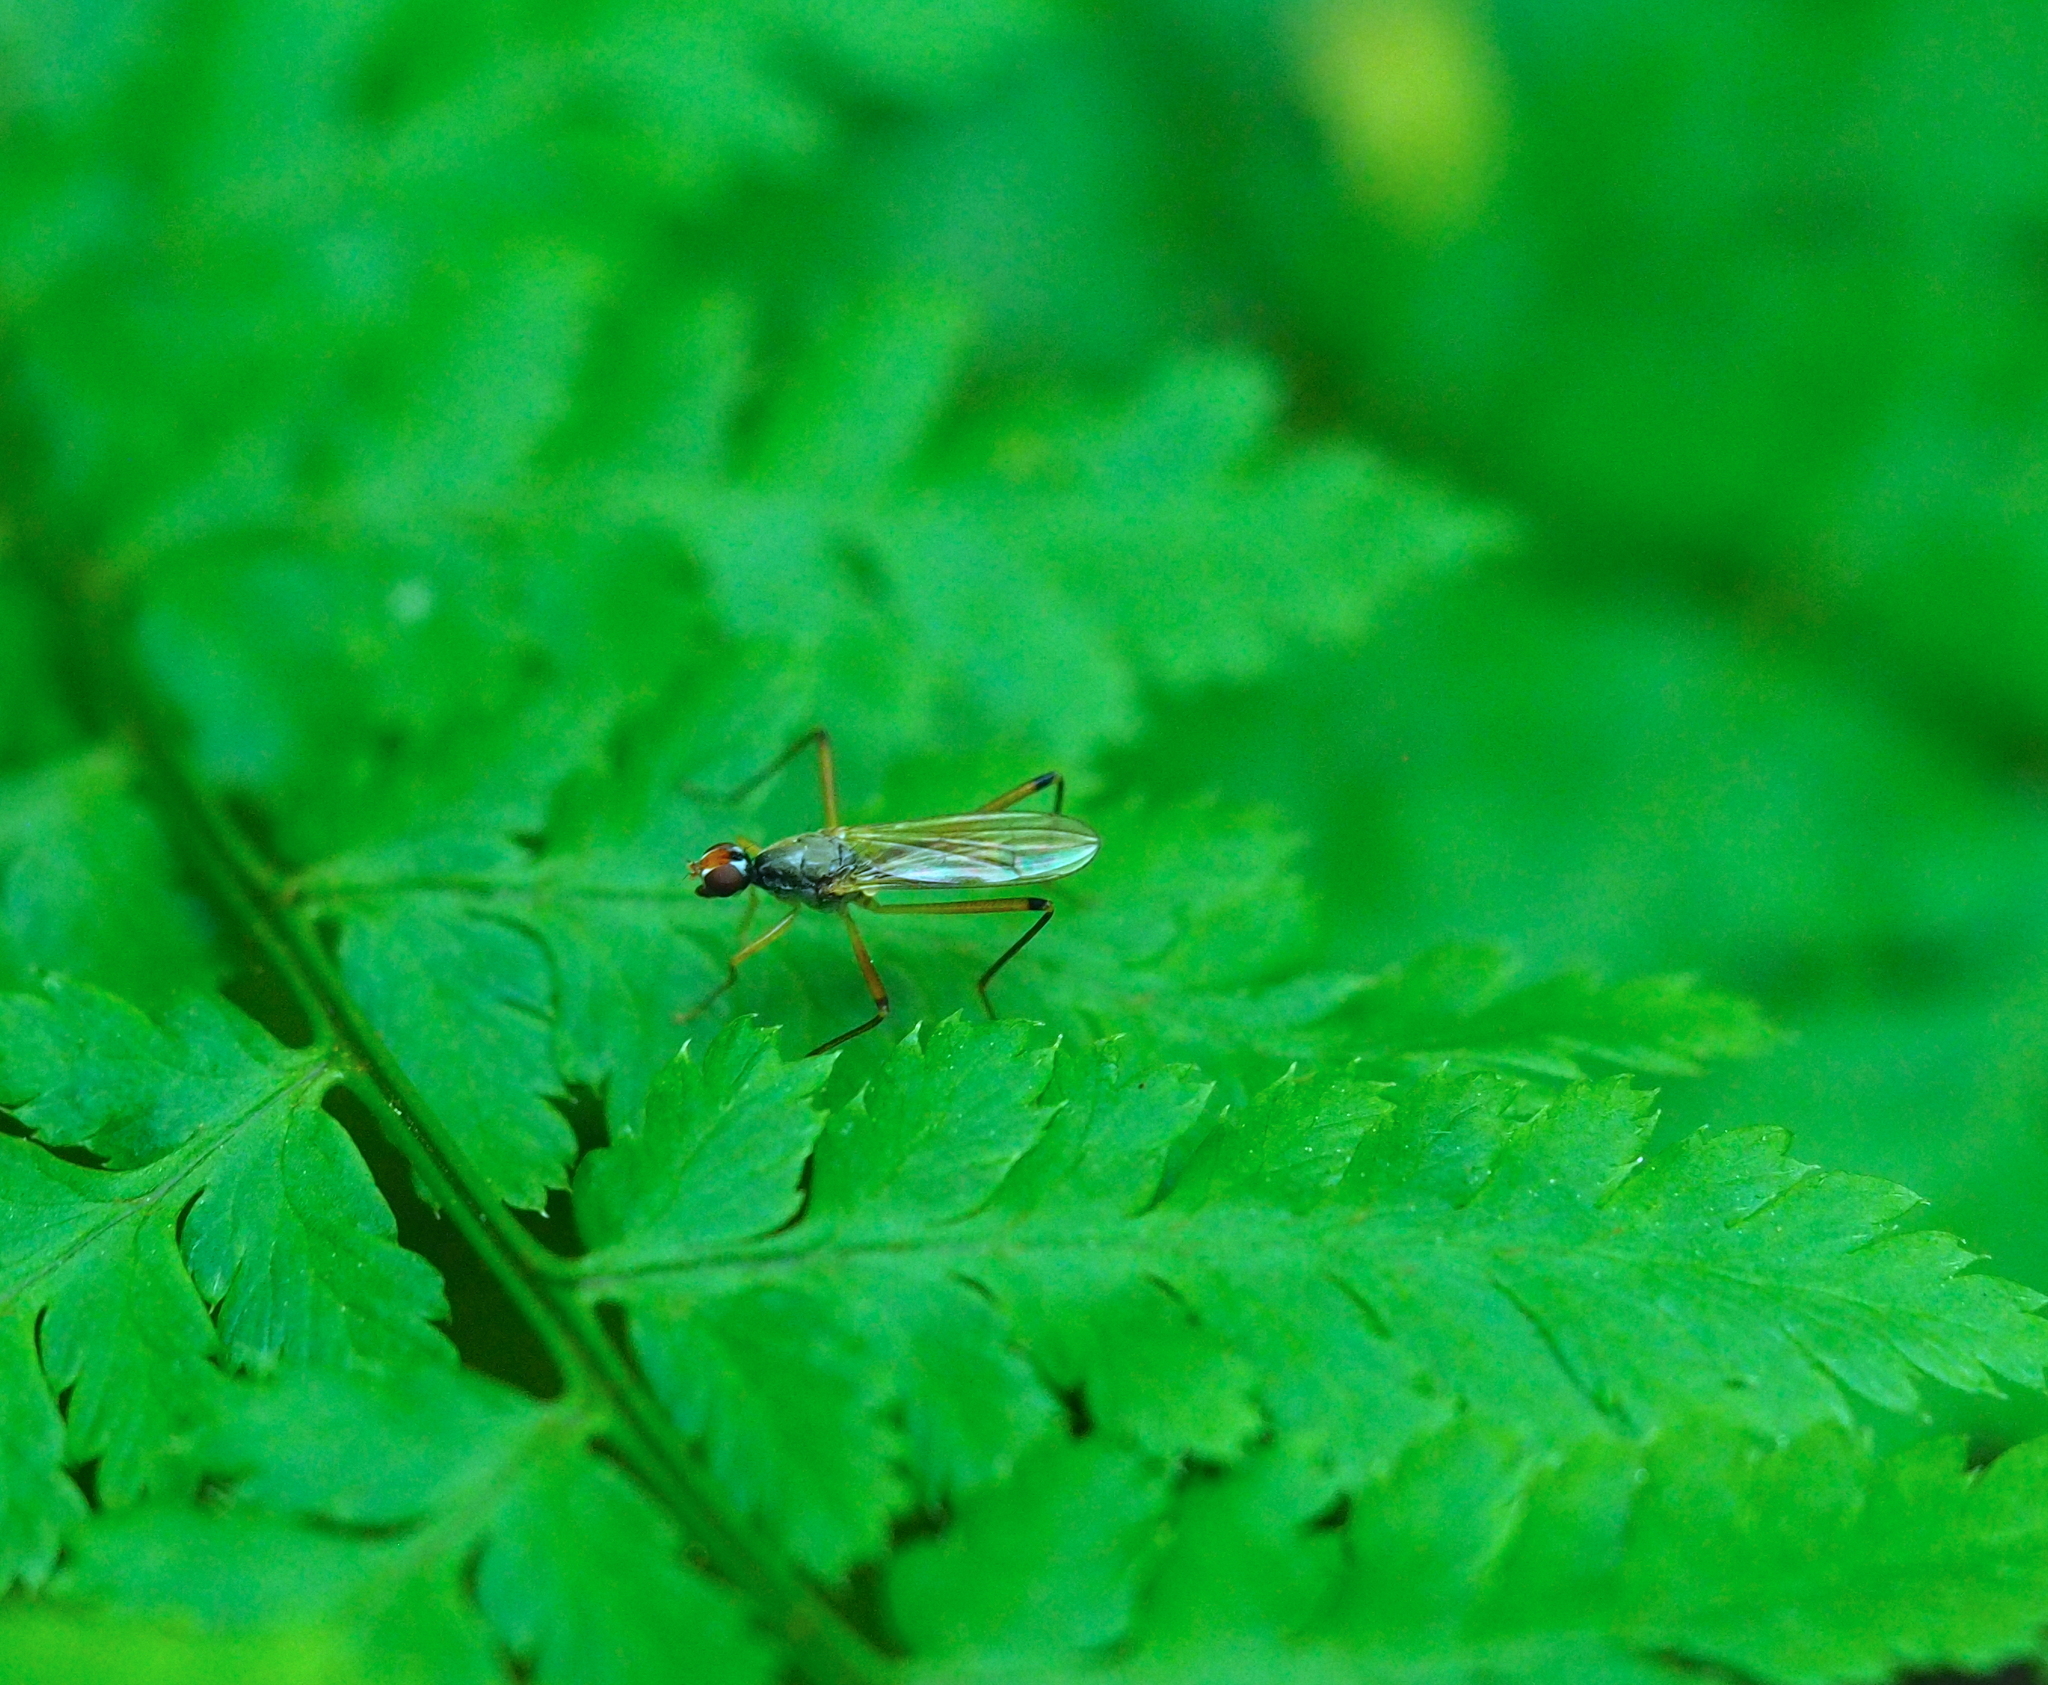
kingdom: Animalia
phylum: Arthropoda
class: Insecta
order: Diptera
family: Micropezidae
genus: Compsobata
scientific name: Compsobata cibaria
